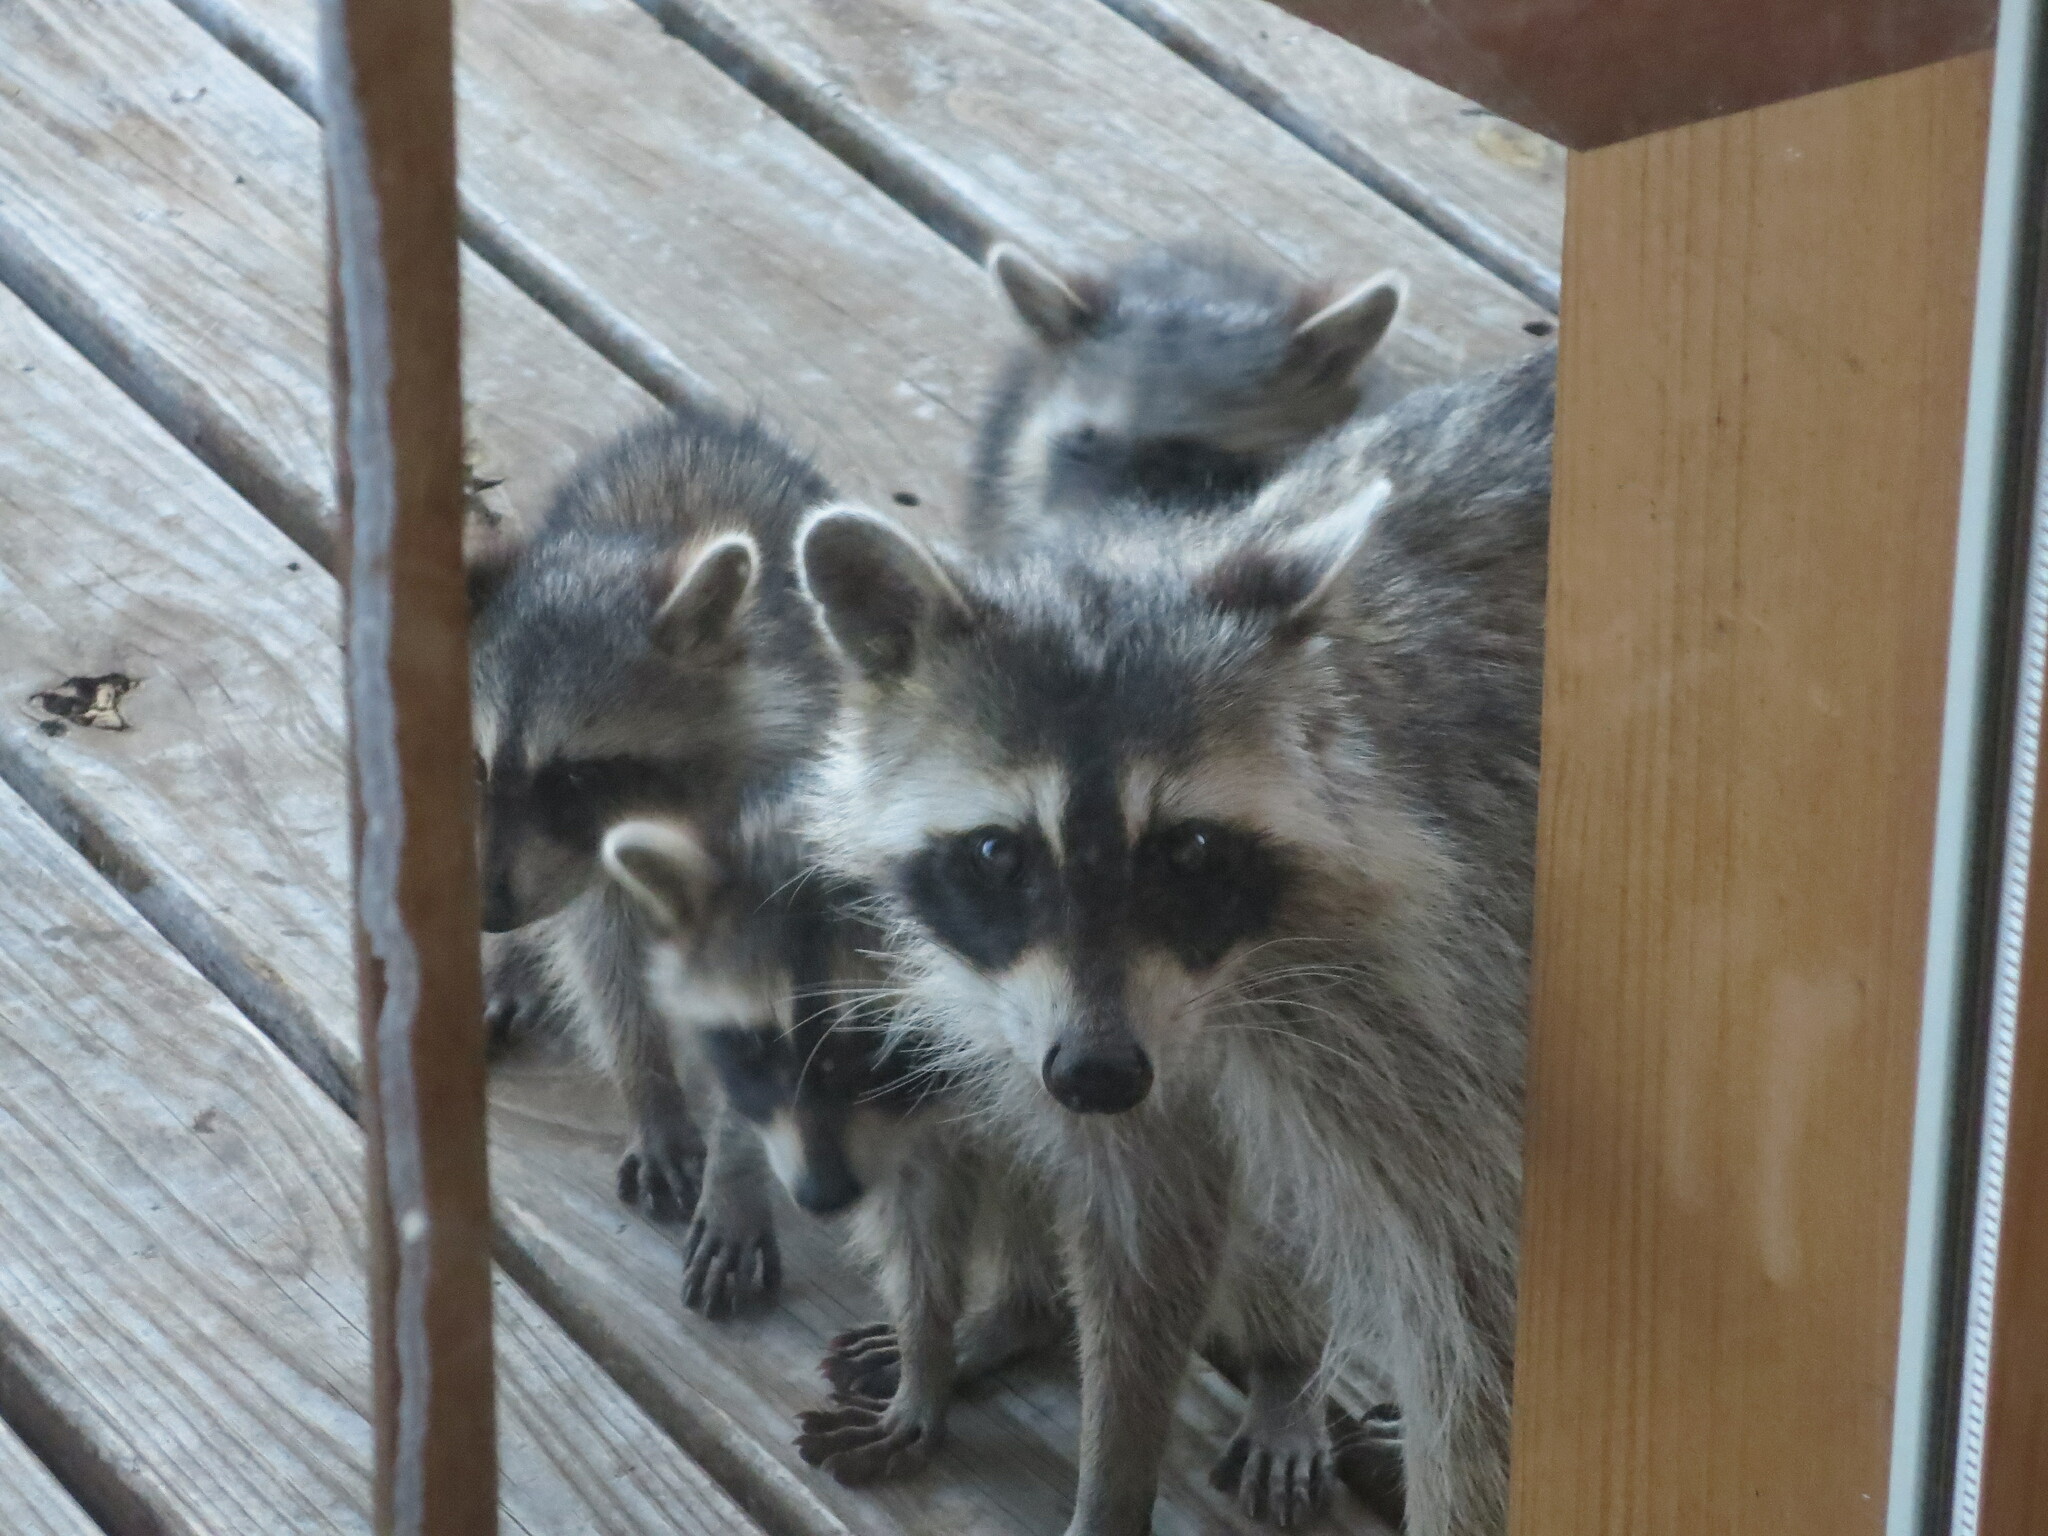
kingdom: Animalia
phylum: Chordata
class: Mammalia
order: Carnivora
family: Procyonidae
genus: Procyon
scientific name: Procyon lotor
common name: Raccoon
